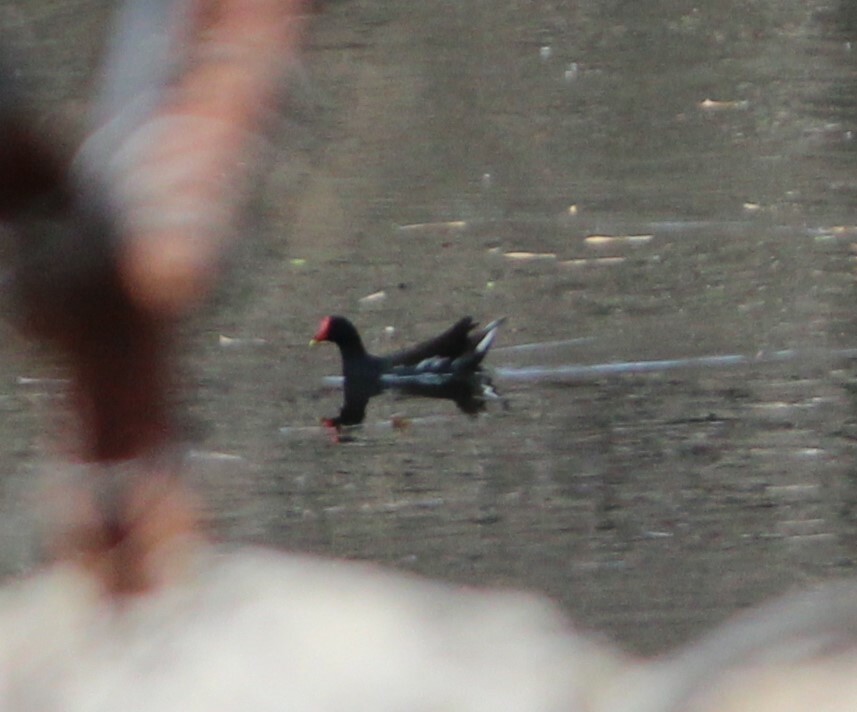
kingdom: Animalia
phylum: Chordata
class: Aves
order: Gruiformes
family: Rallidae
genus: Gallinula
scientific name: Gallinula chloropus
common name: Common moorhen
